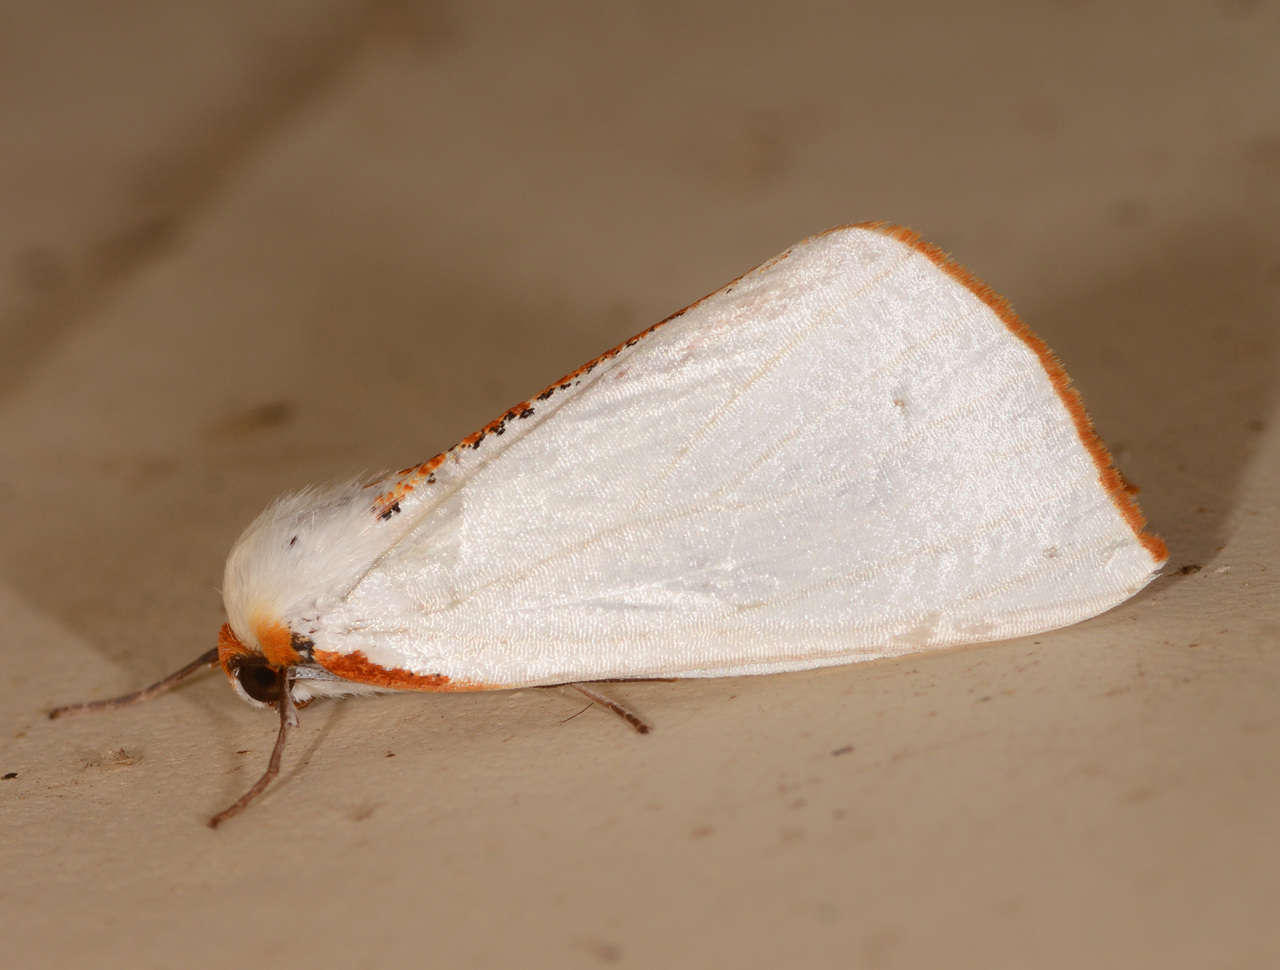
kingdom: Animalia
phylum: Arthropoda
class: Insecta
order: Lepidoptera
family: Geometridae
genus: Thalaina
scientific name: Thalaina selenaea
